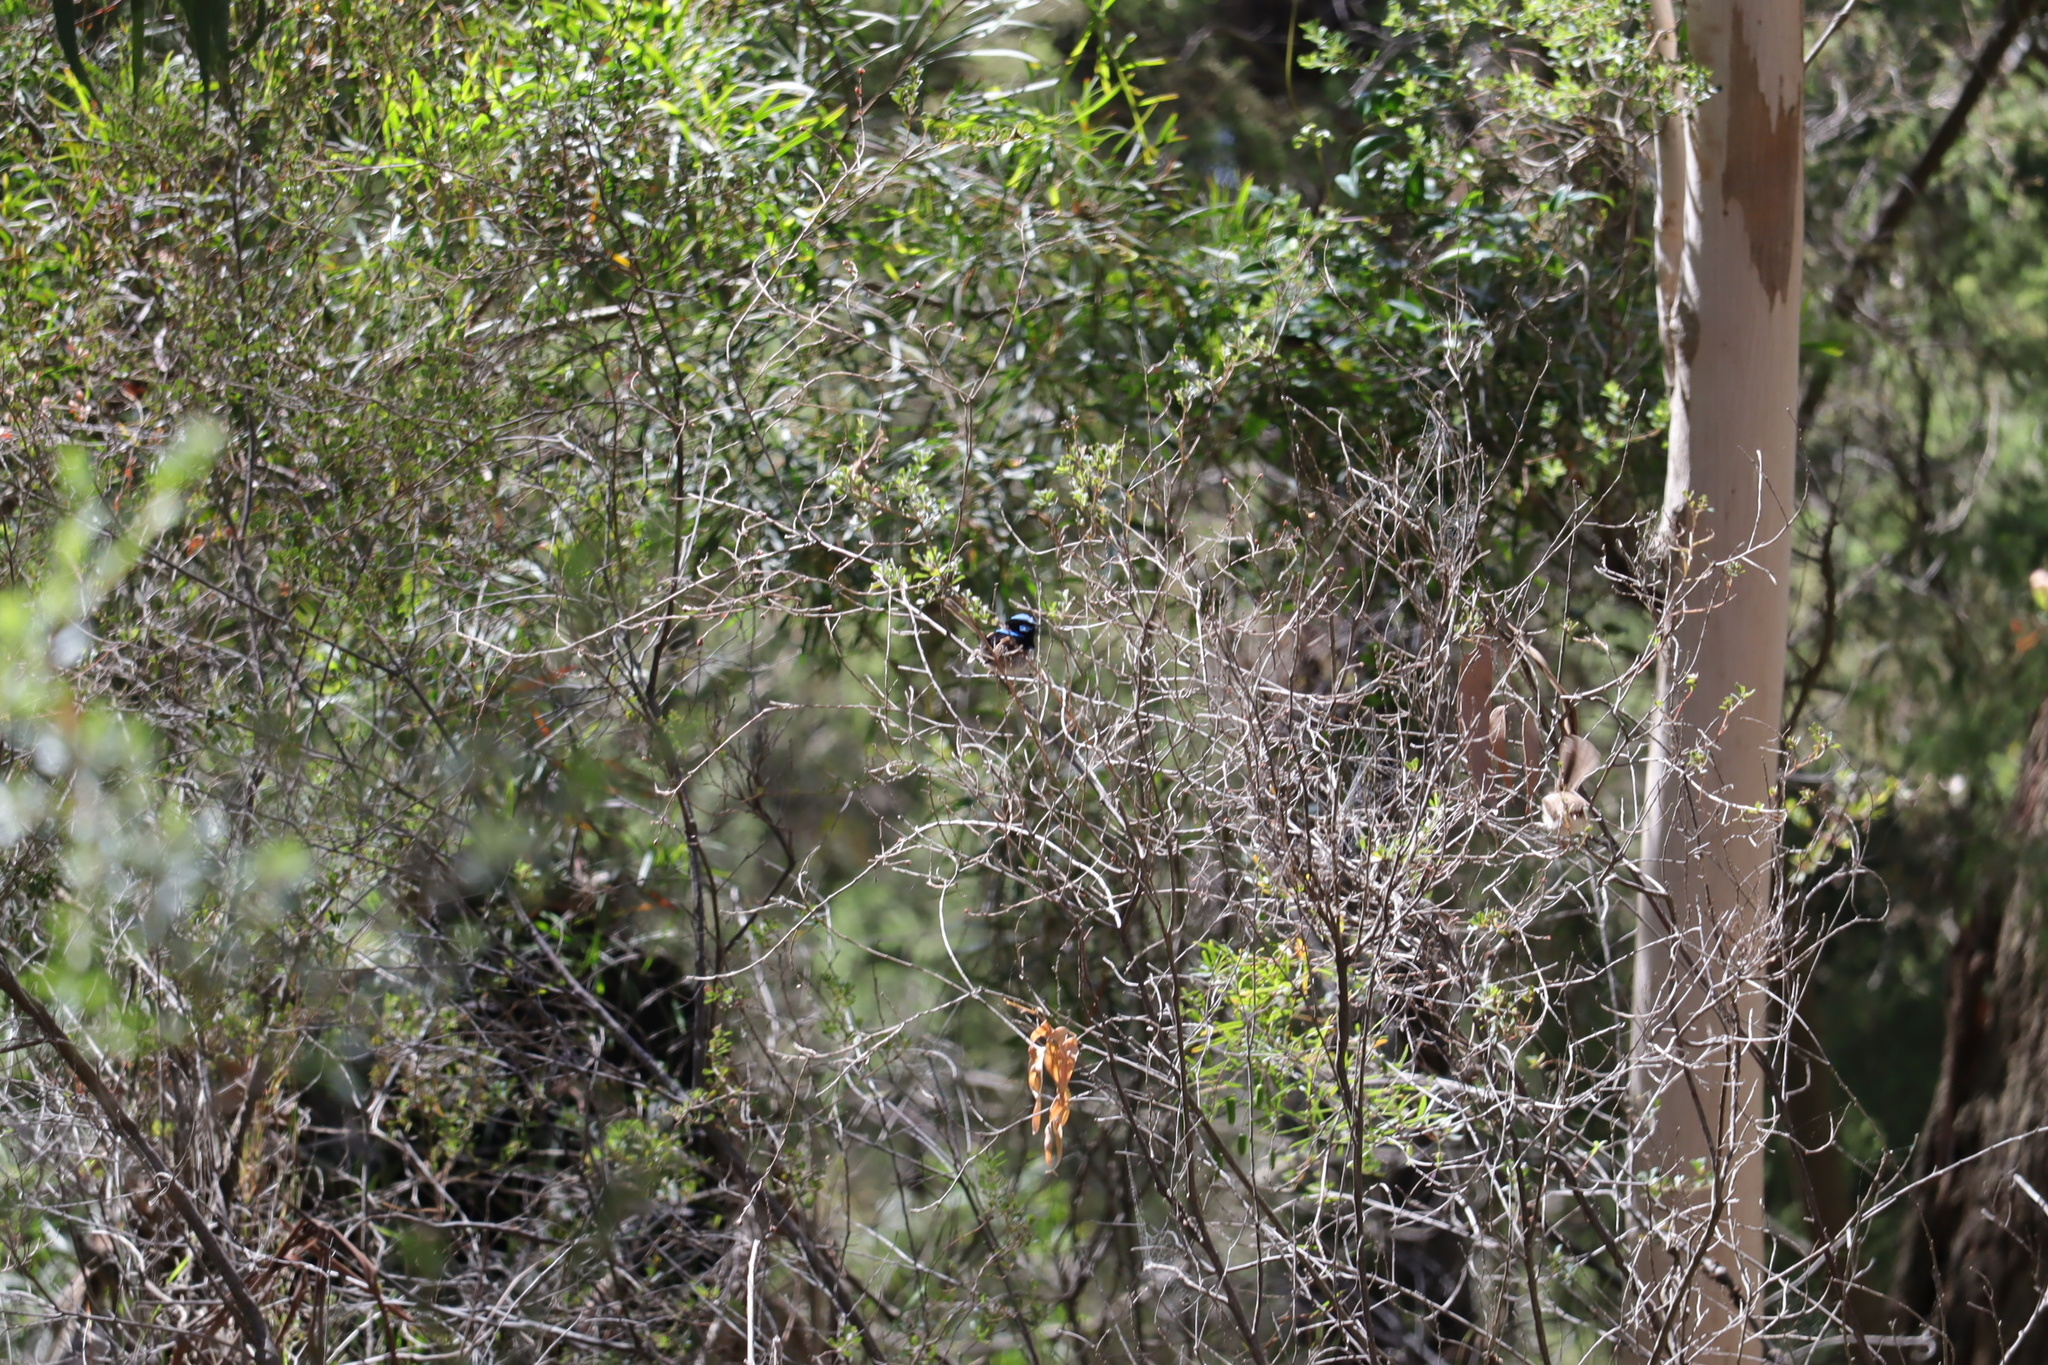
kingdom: Animalia
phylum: Chordata
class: Aves
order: Passeriformes
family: Maluridae
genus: Malurus
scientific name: Malurus cyaneus
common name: Superb fairywren
